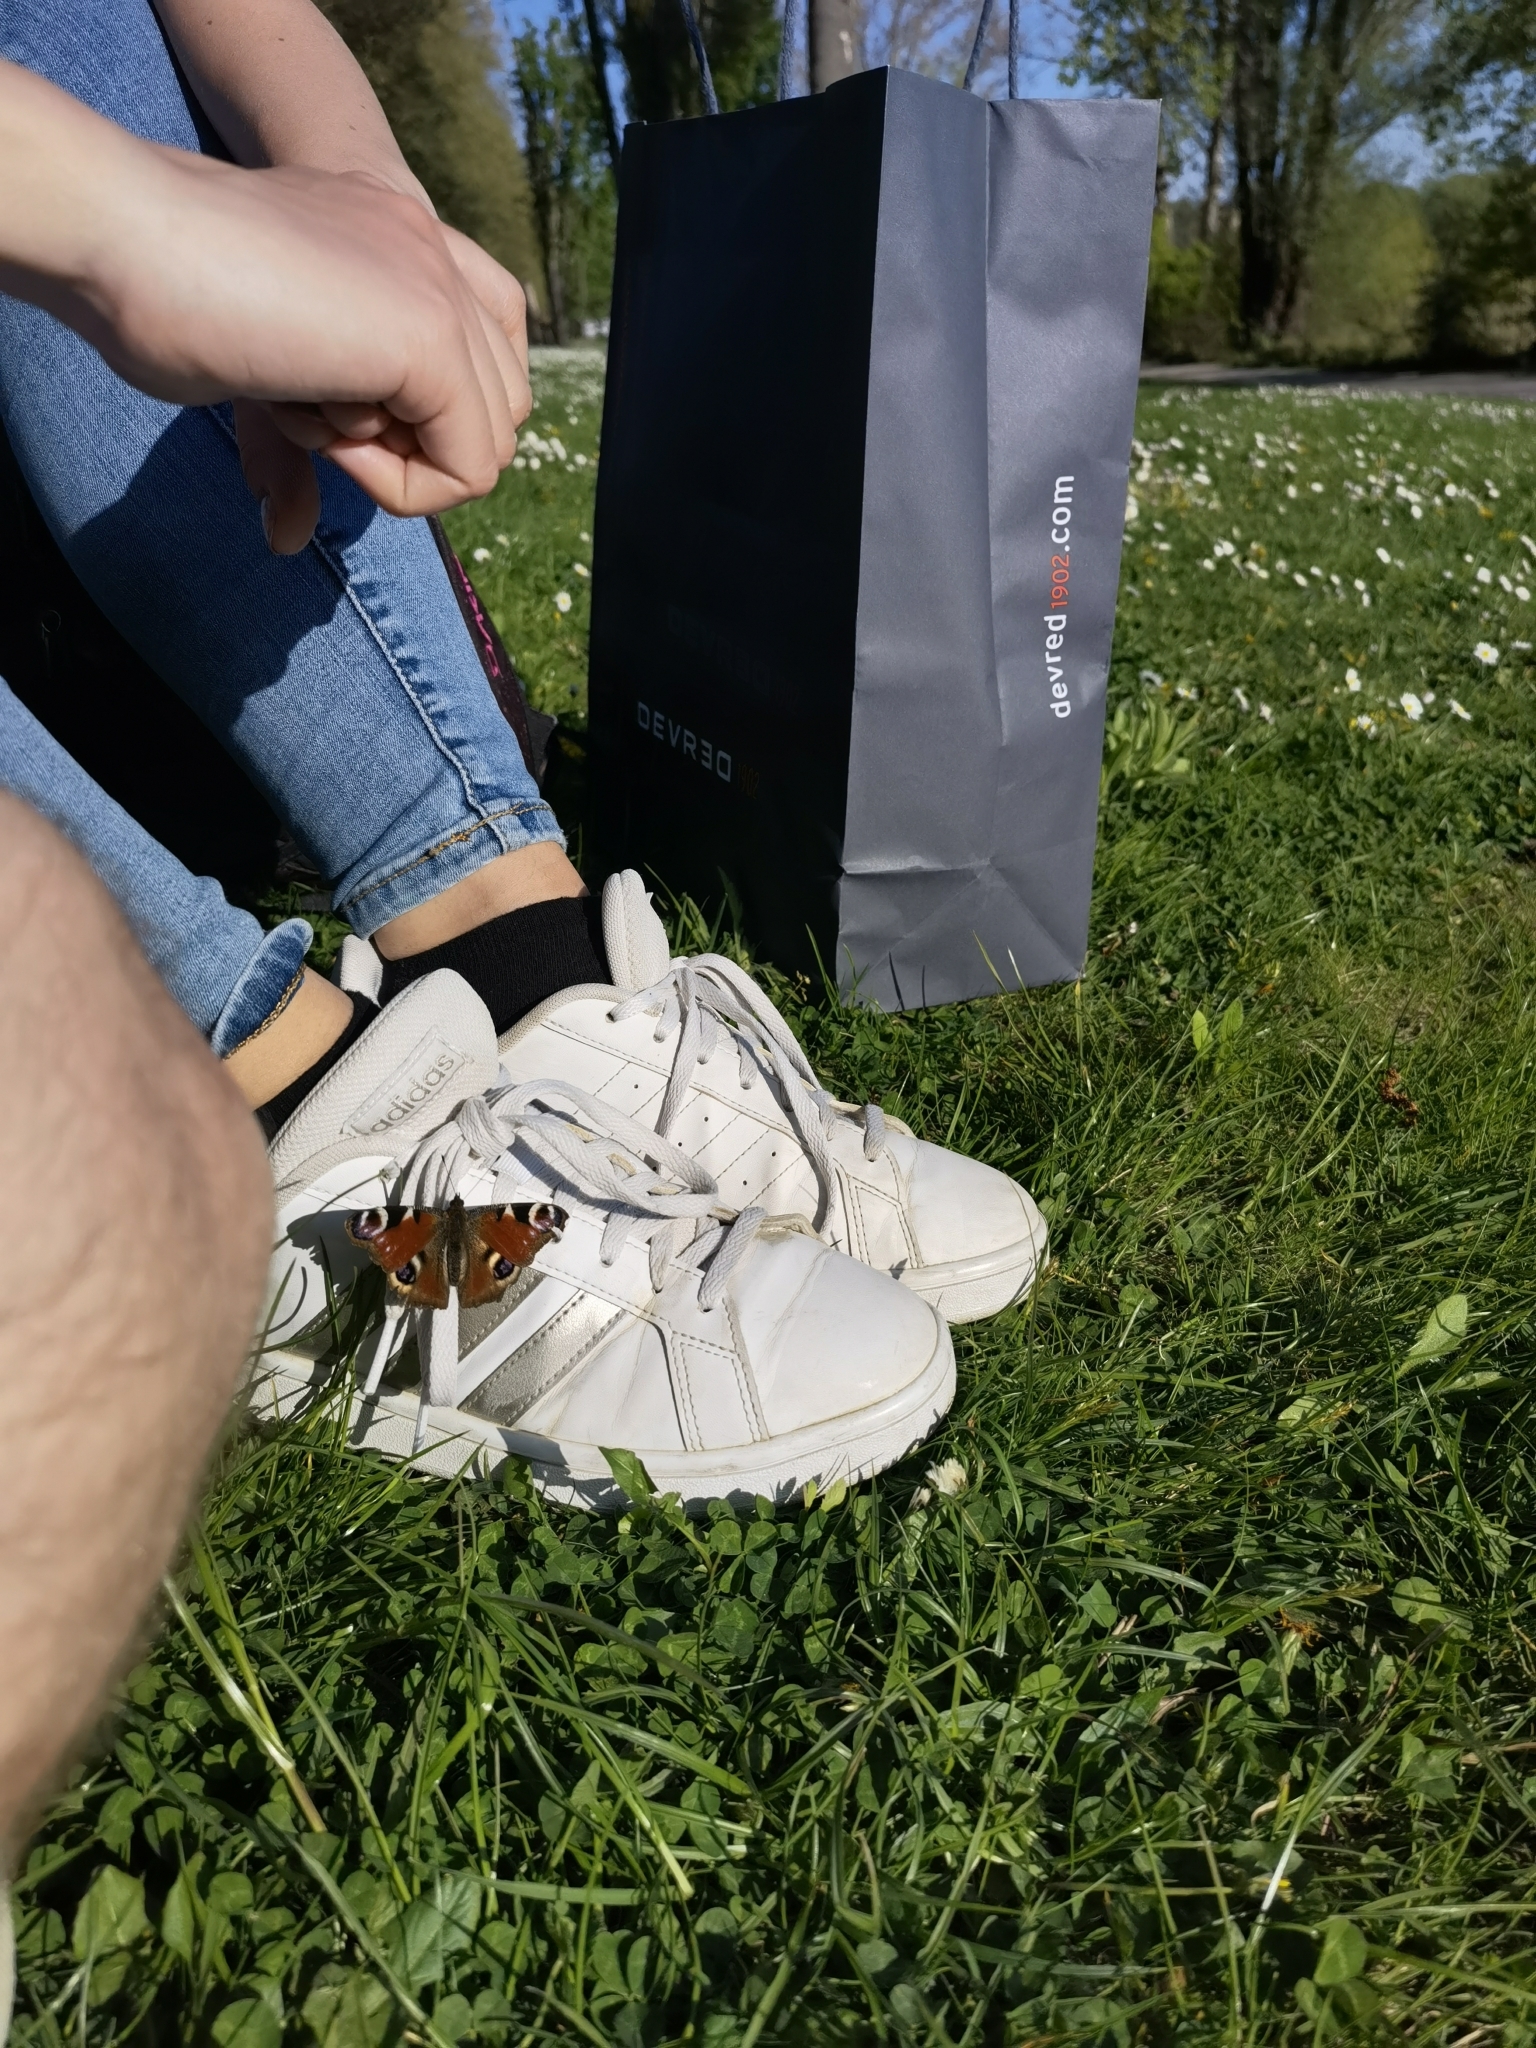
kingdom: Animalia
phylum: Arthropoda
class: Insecta
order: Lepidoptera
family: Nymphalidae
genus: Aglais
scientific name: Aglais io
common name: Peacock
